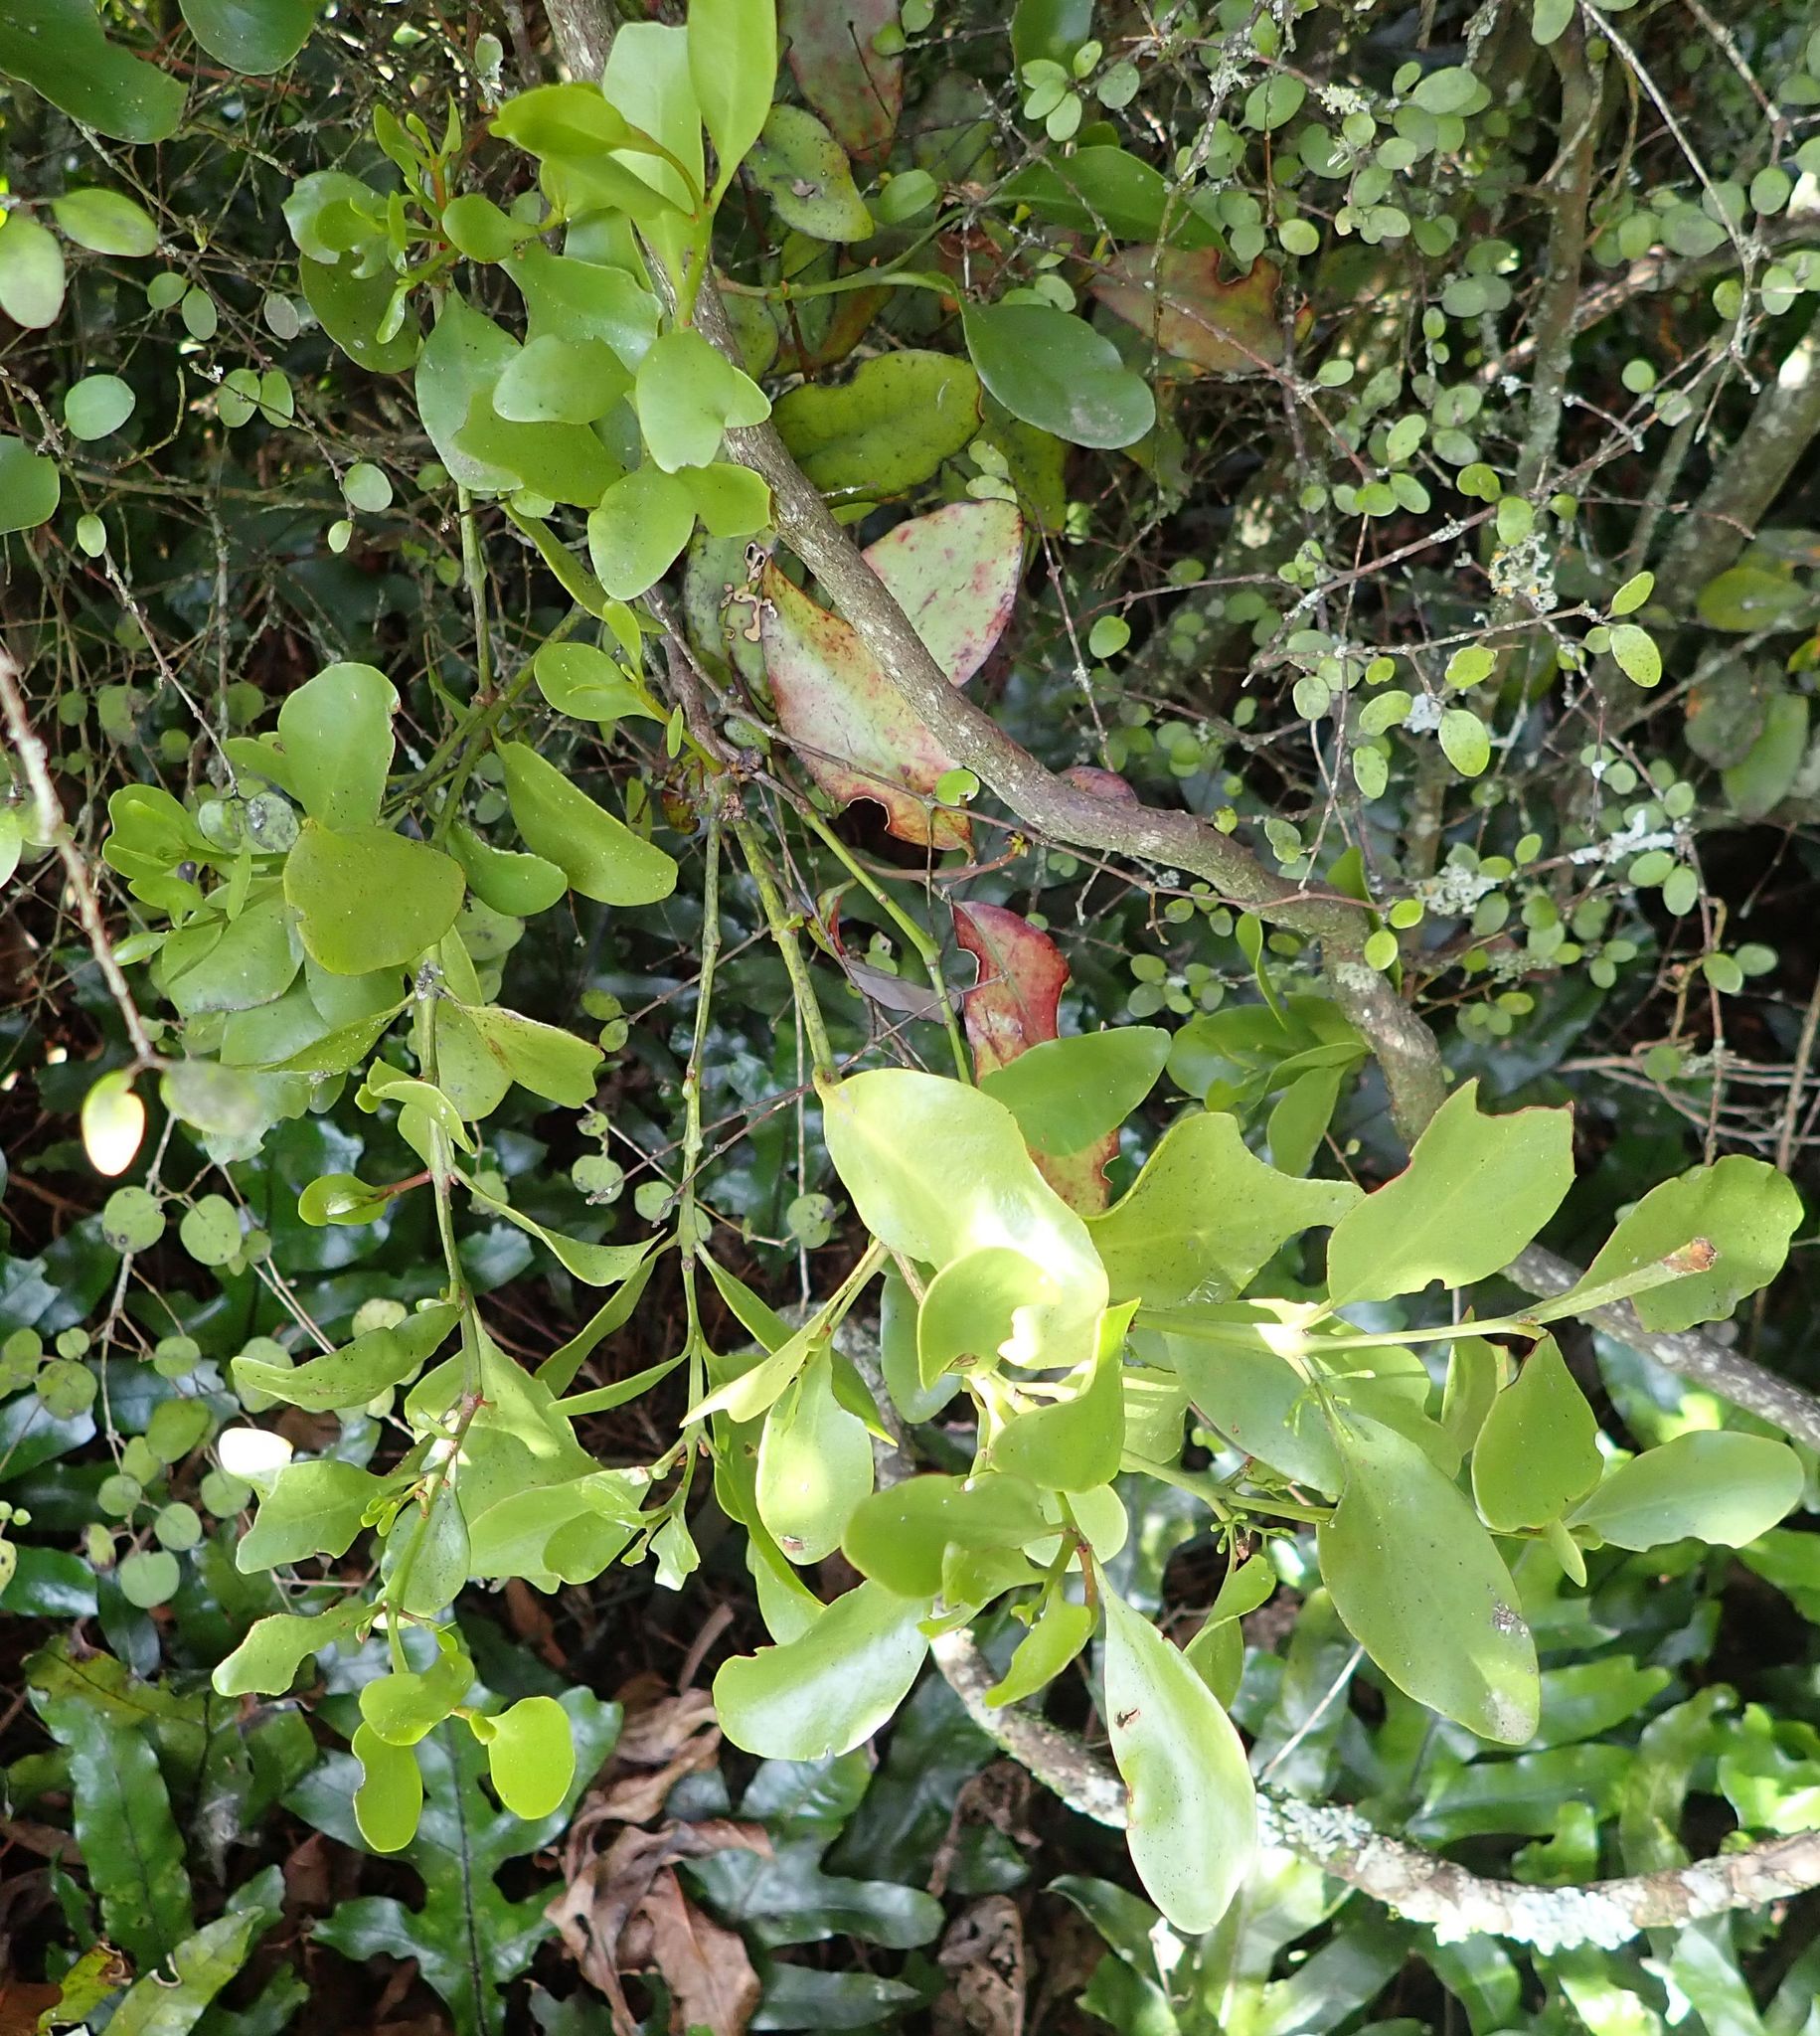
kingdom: Plantae
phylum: Tracheophyta
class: Magnoliopsida
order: Santalales
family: Loranthaceae
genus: Ileostylus
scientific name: Ileostylus micranthus
